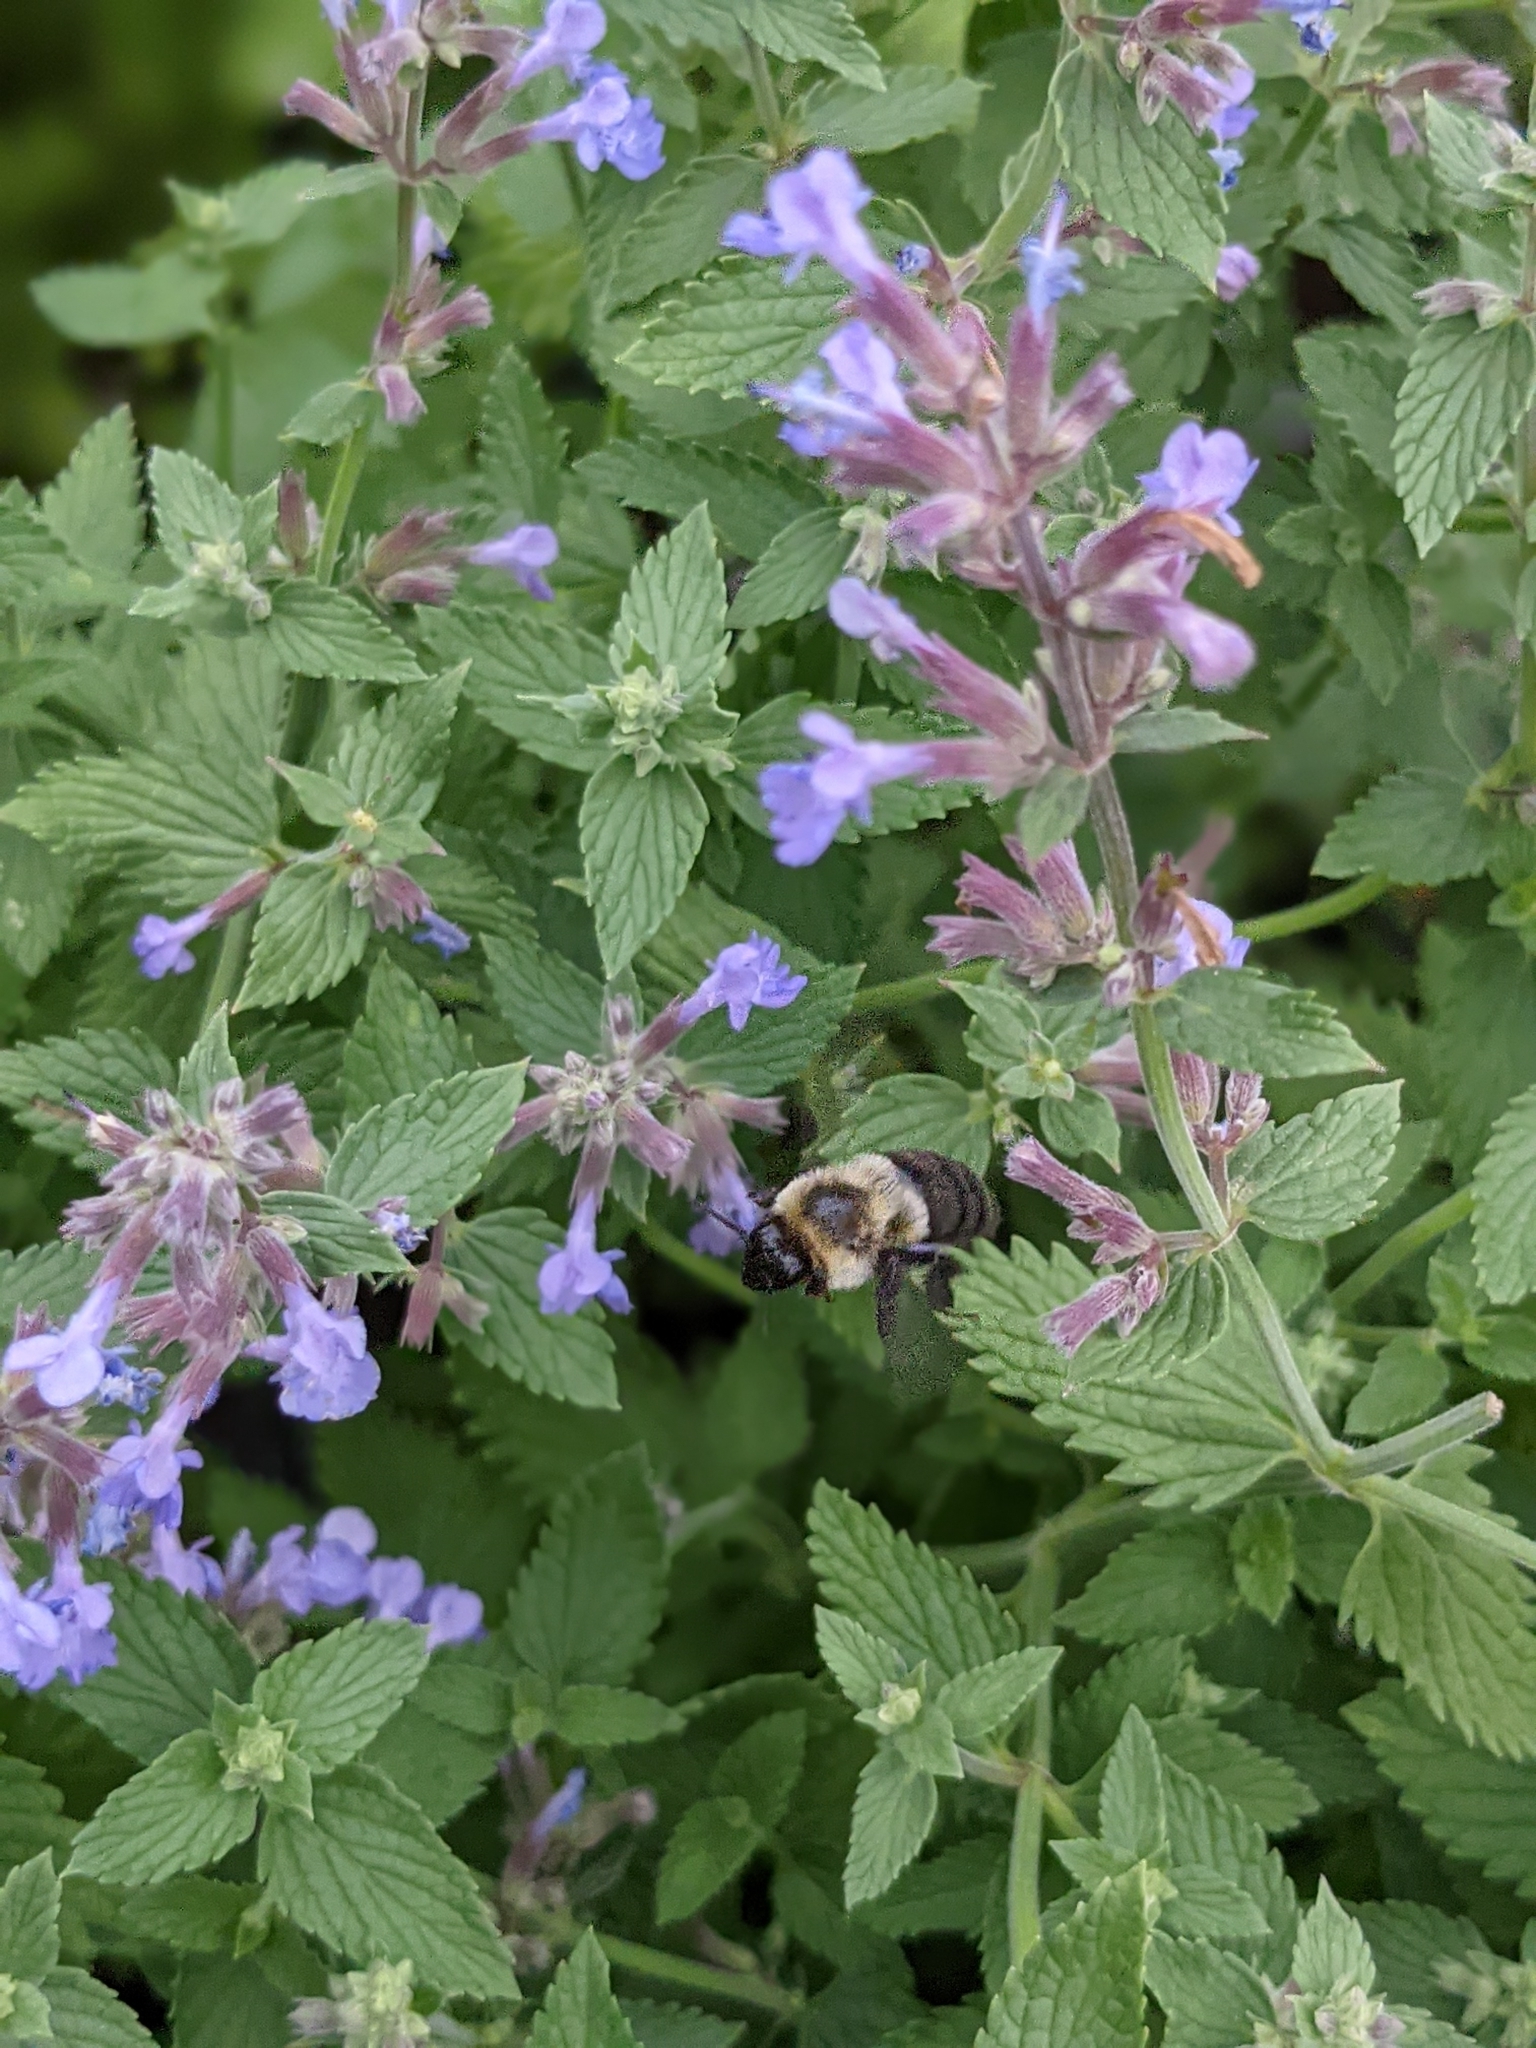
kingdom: Animalia
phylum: Arthropoda
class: Insecta
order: Hymenoptera
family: Apidae
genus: Bombus
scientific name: Bombus impatiens
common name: Common eastern bumble bee
